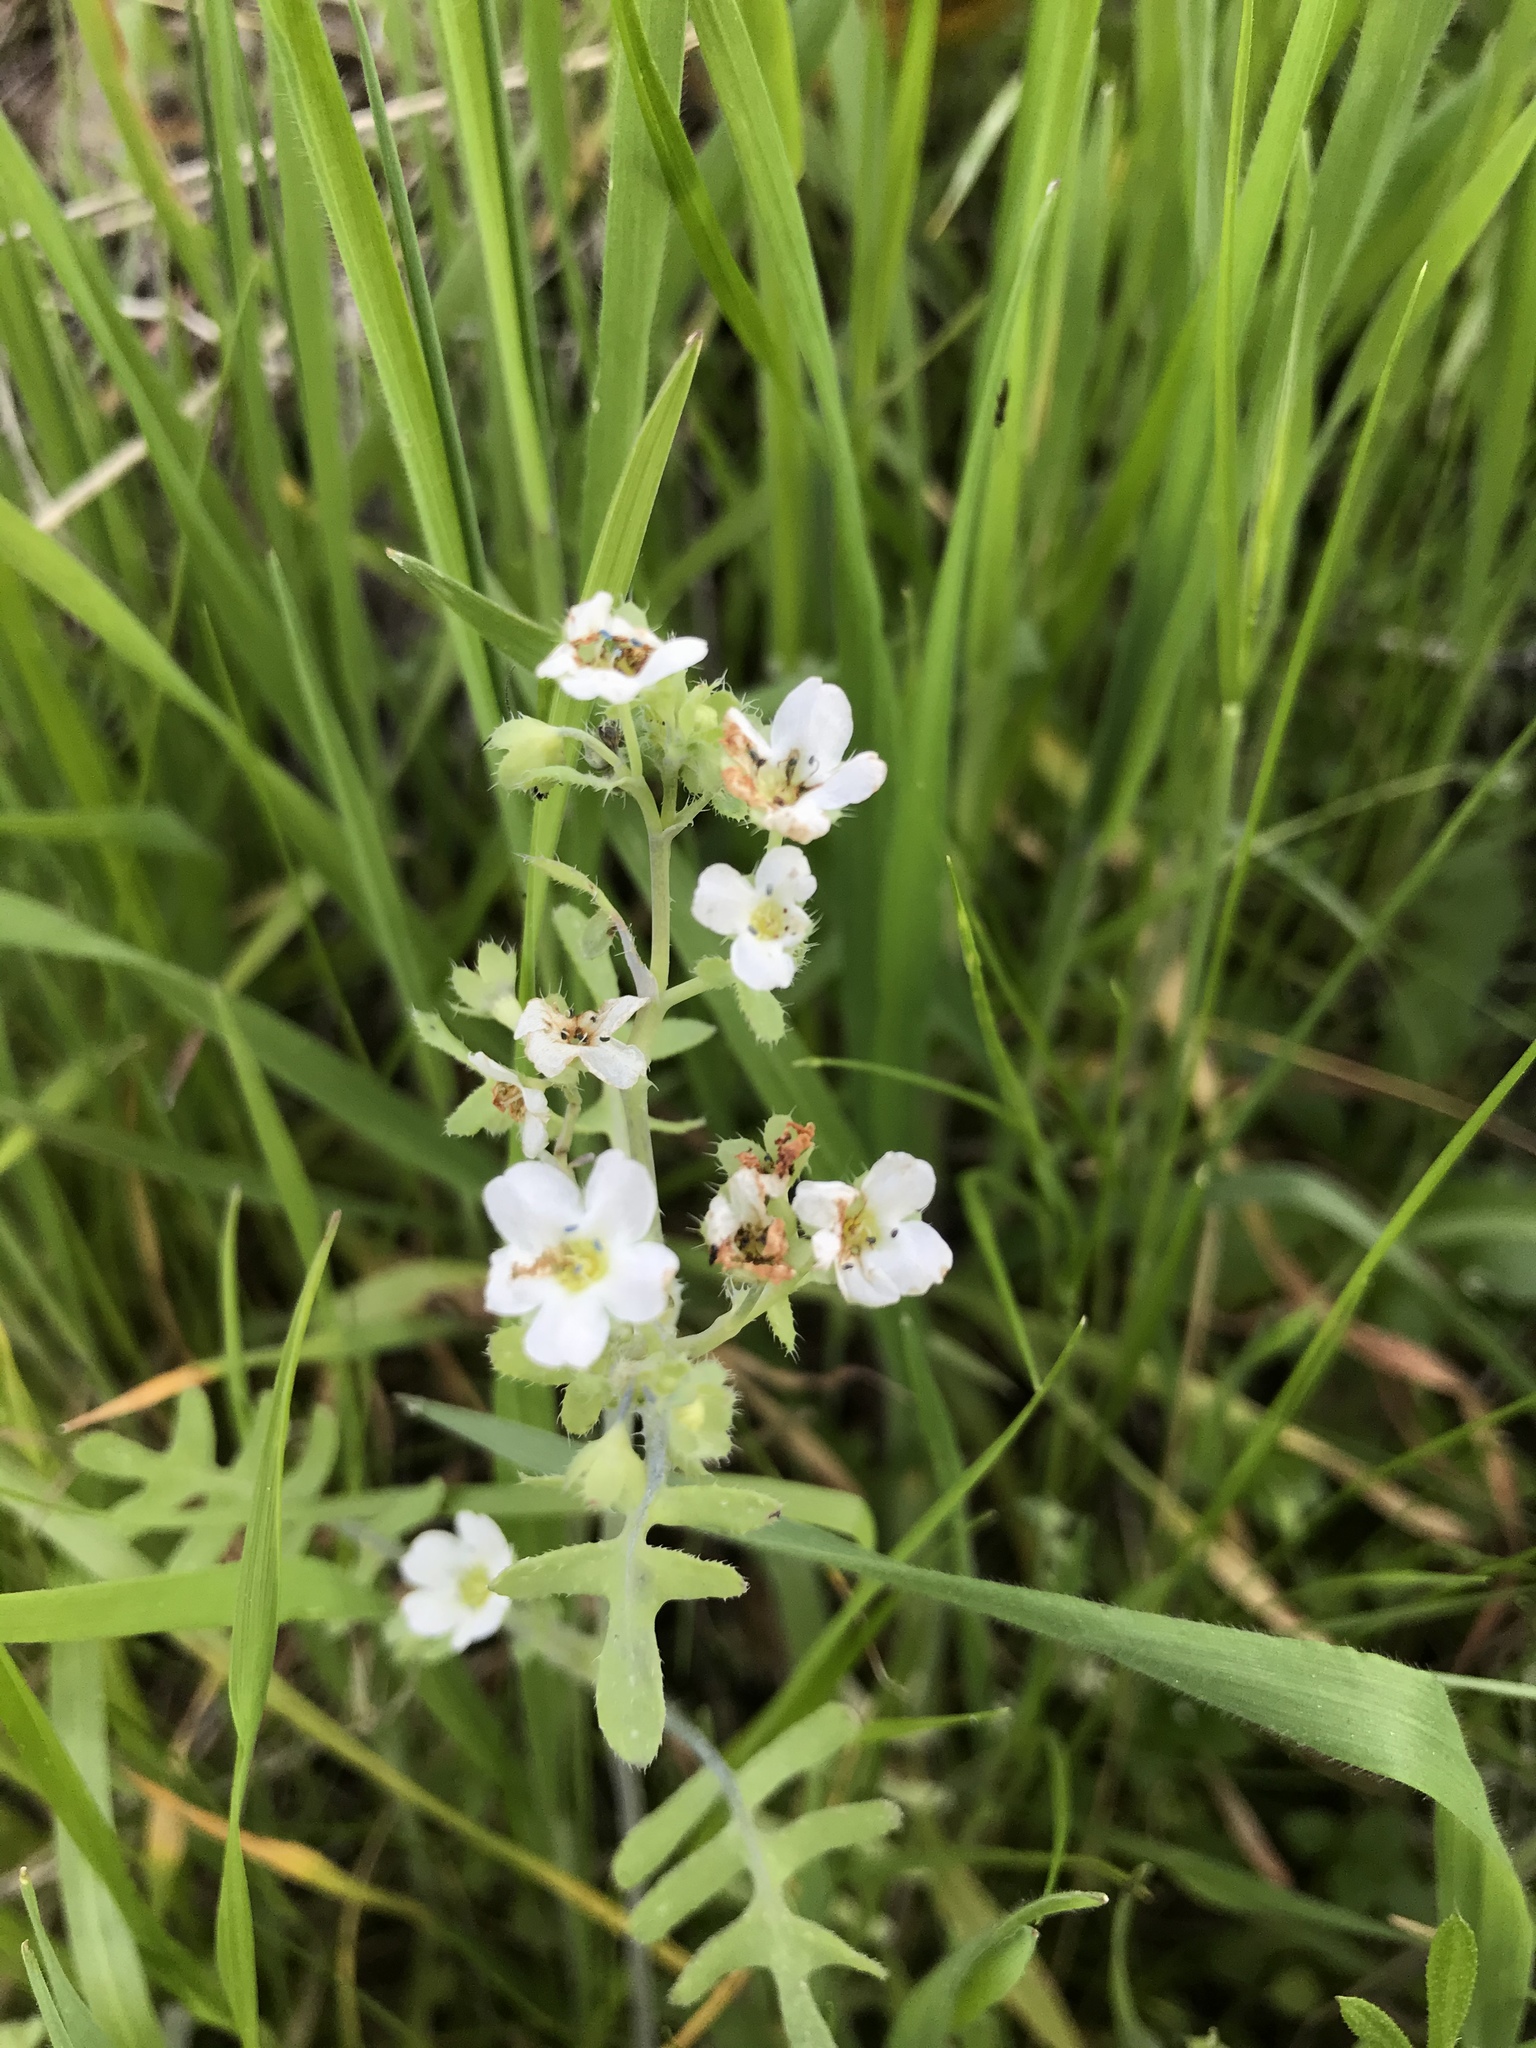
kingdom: Plantae
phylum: Tracheophyta
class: Magnoliopsida
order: Boraginales
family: Hydrophyllaceae
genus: Pholistoma
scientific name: Pholistoma membranaceum
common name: White fiesta-flower
